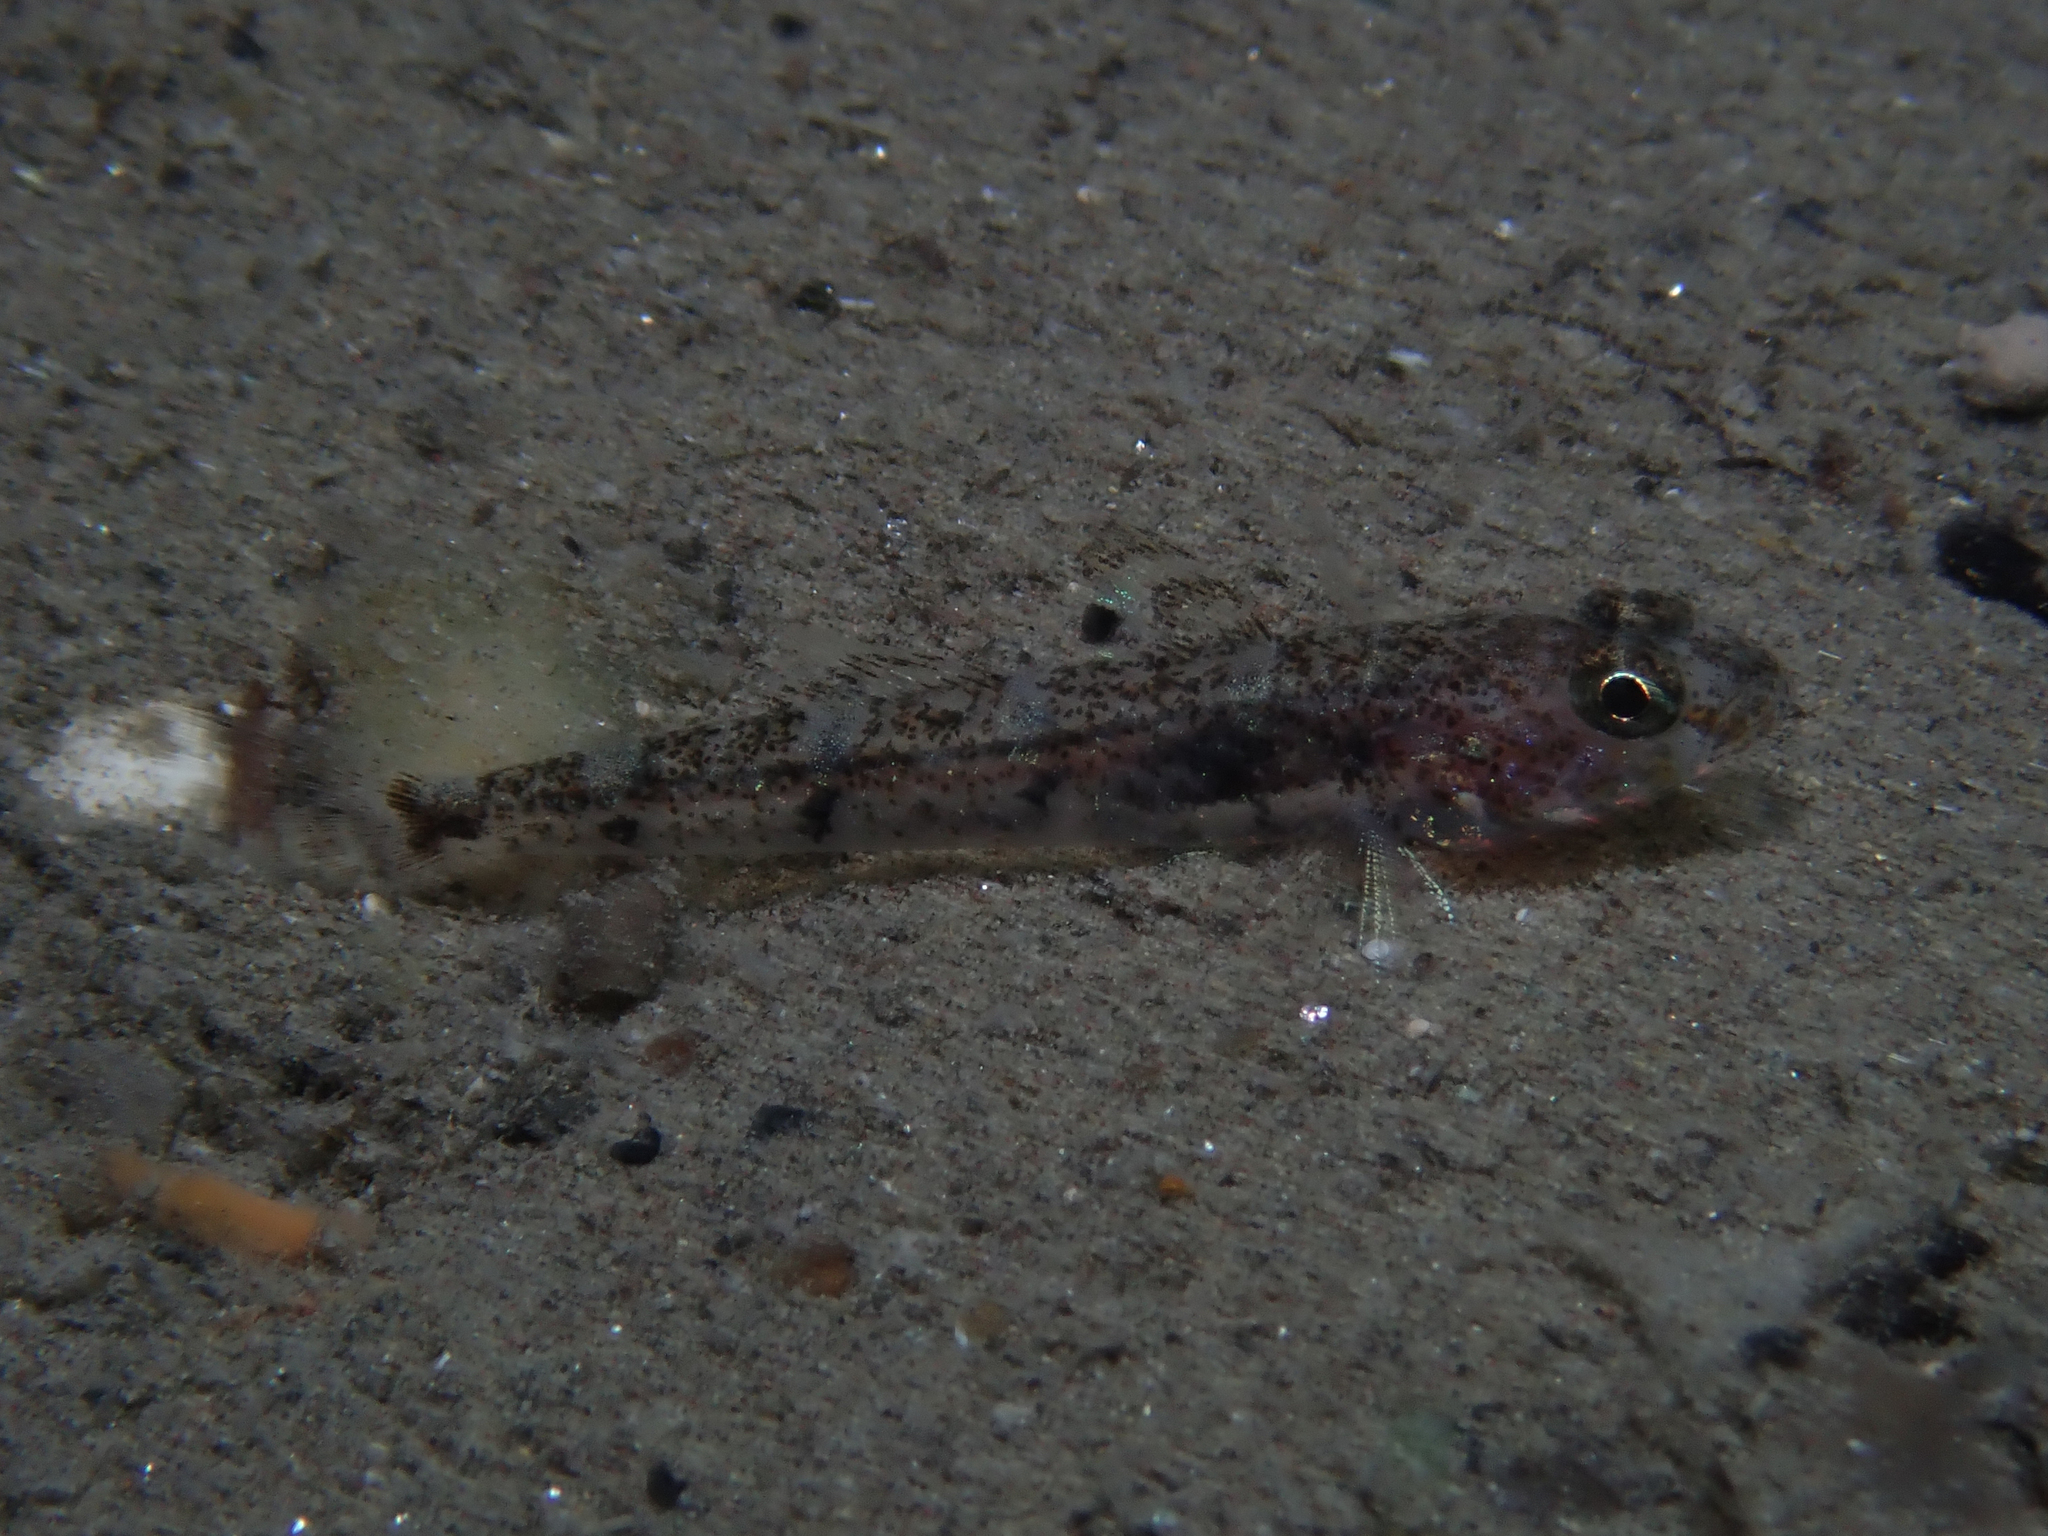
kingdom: Animalia
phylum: Chordata
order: Perciformes
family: Gobiidae
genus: Deltentosteus
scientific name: Deltentosteus quadrimaculatus
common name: Four-spotted goby
